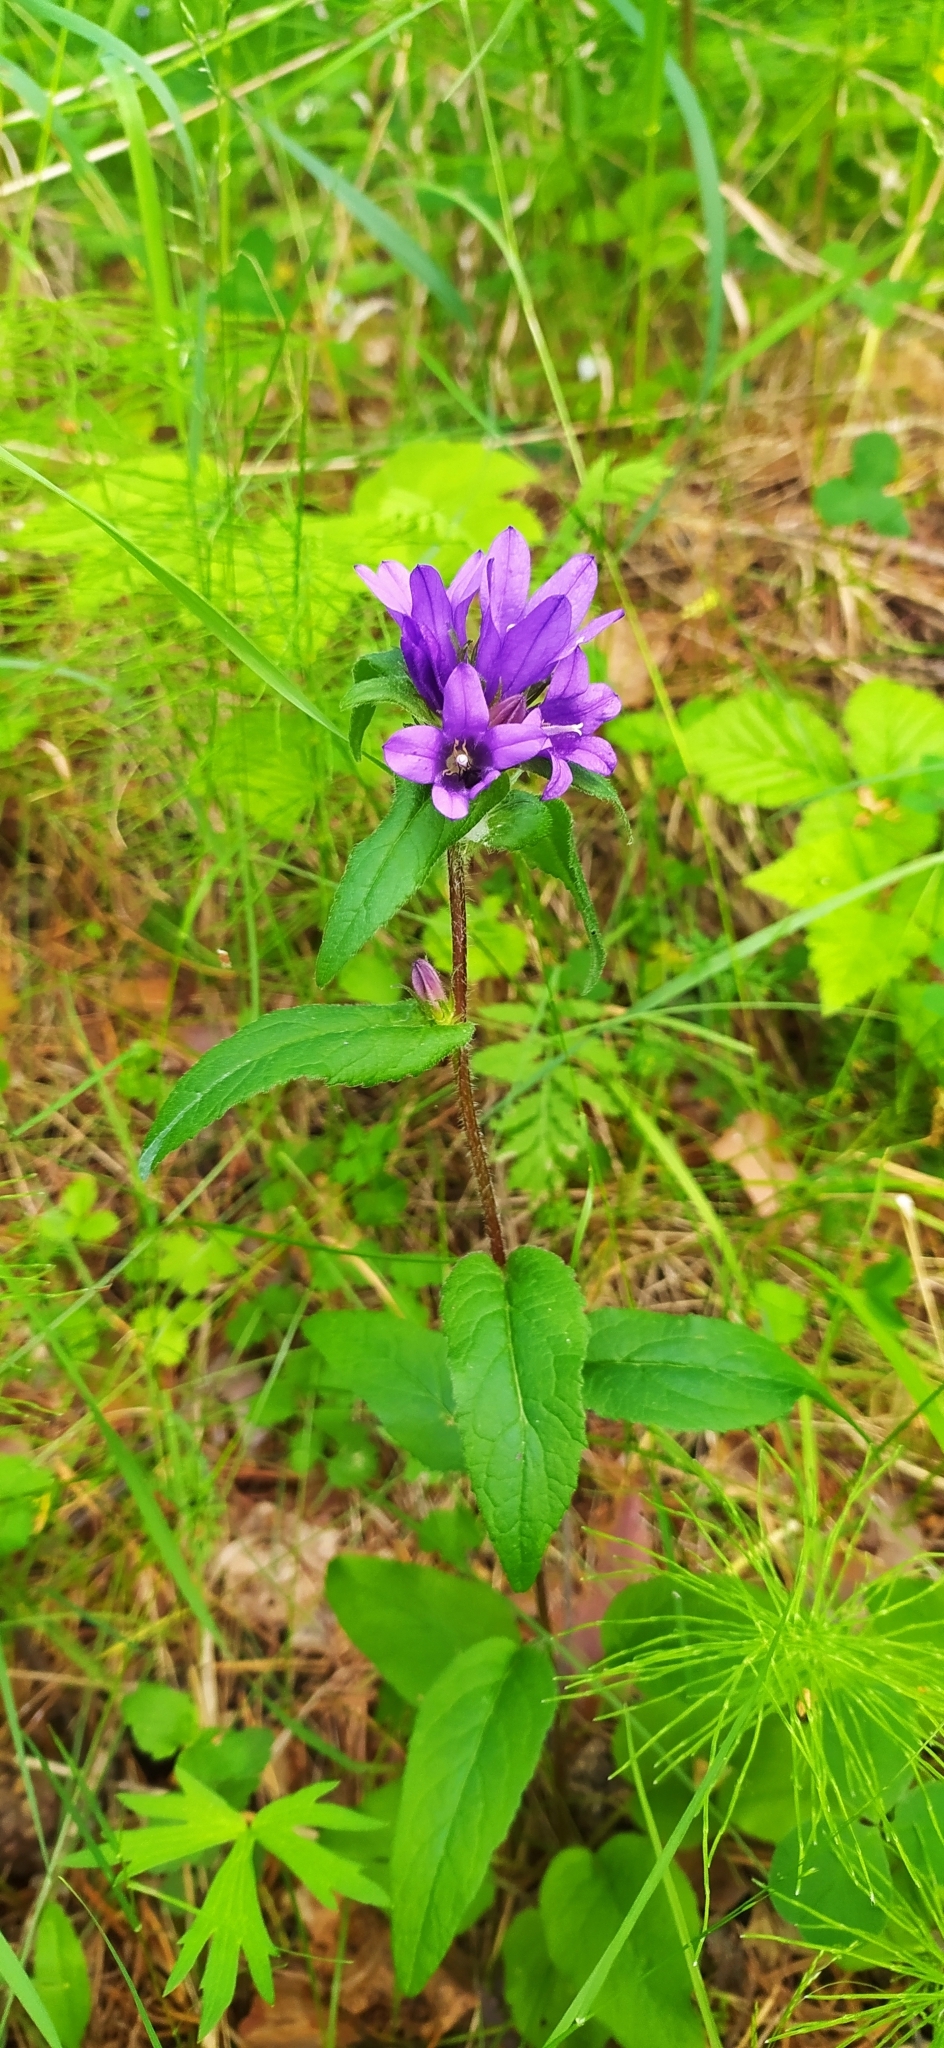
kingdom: Plantae
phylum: Tracheophyta
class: Magnoliopsida
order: Asterales
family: Campanulaceae
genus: Campanula
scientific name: Campanula glomerata
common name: Clustered bellflower
